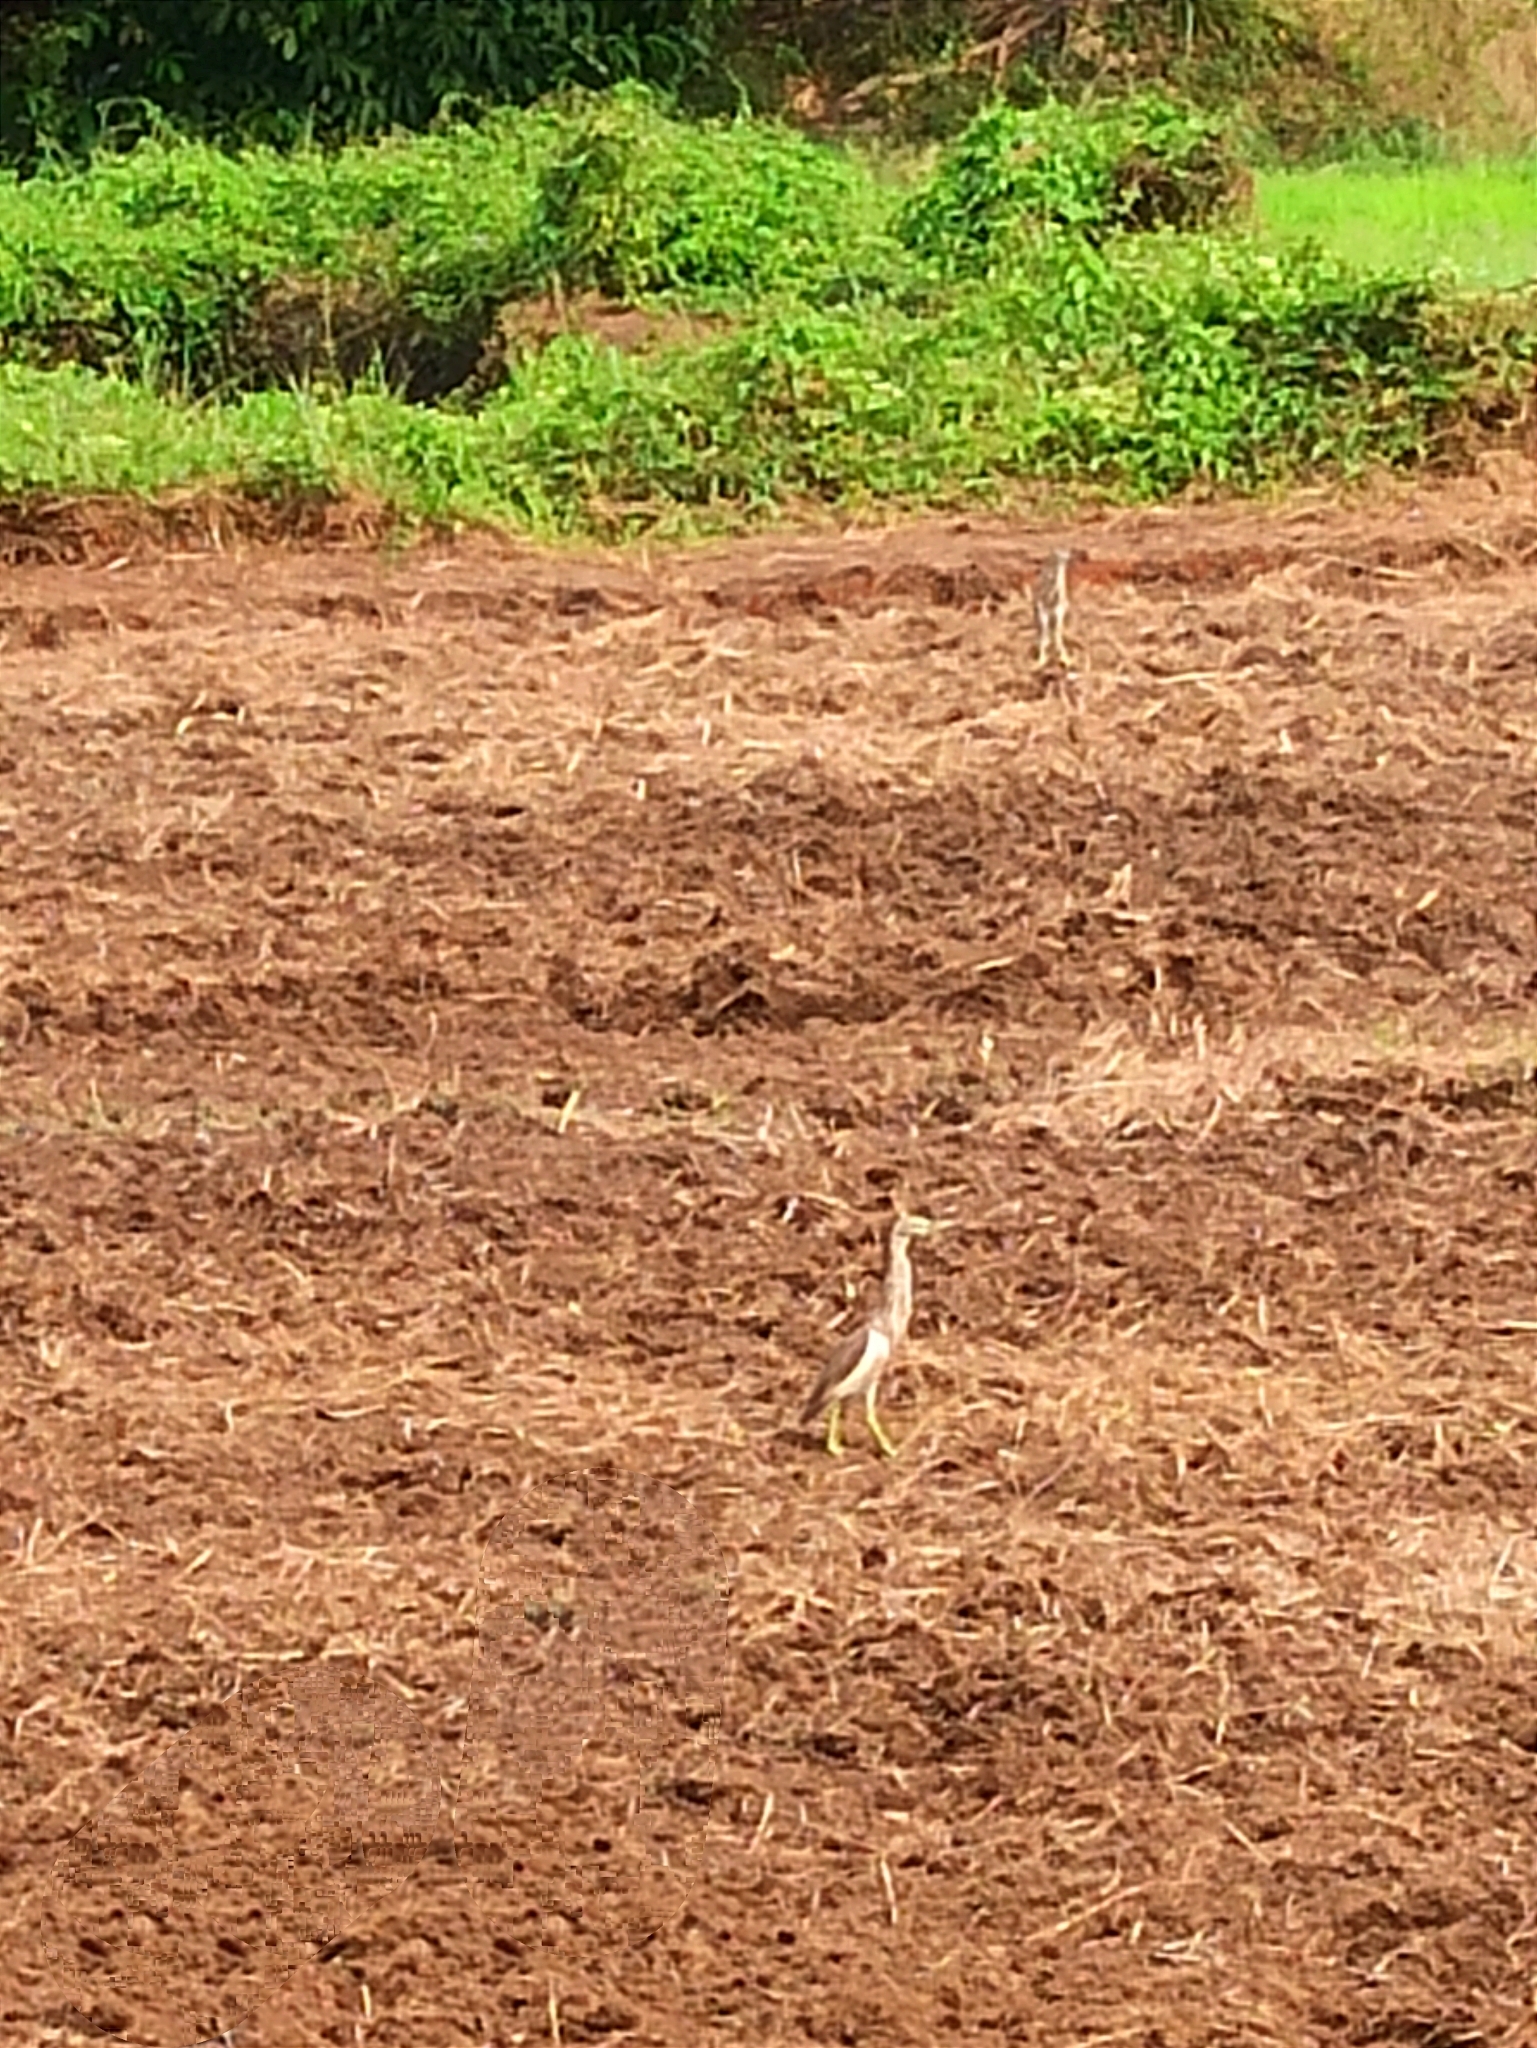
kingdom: Animalia
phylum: Chordata
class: Aves
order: Pelecaniformes
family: Ardeidae
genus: Ardeola
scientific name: Ardeola grayii
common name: Indian pond heron
